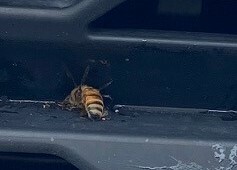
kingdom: Animalia
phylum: Arthropoda
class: Insecta
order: Hymenoptera
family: Apidae
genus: Apis
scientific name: Apis mellifera
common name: Honey bee
